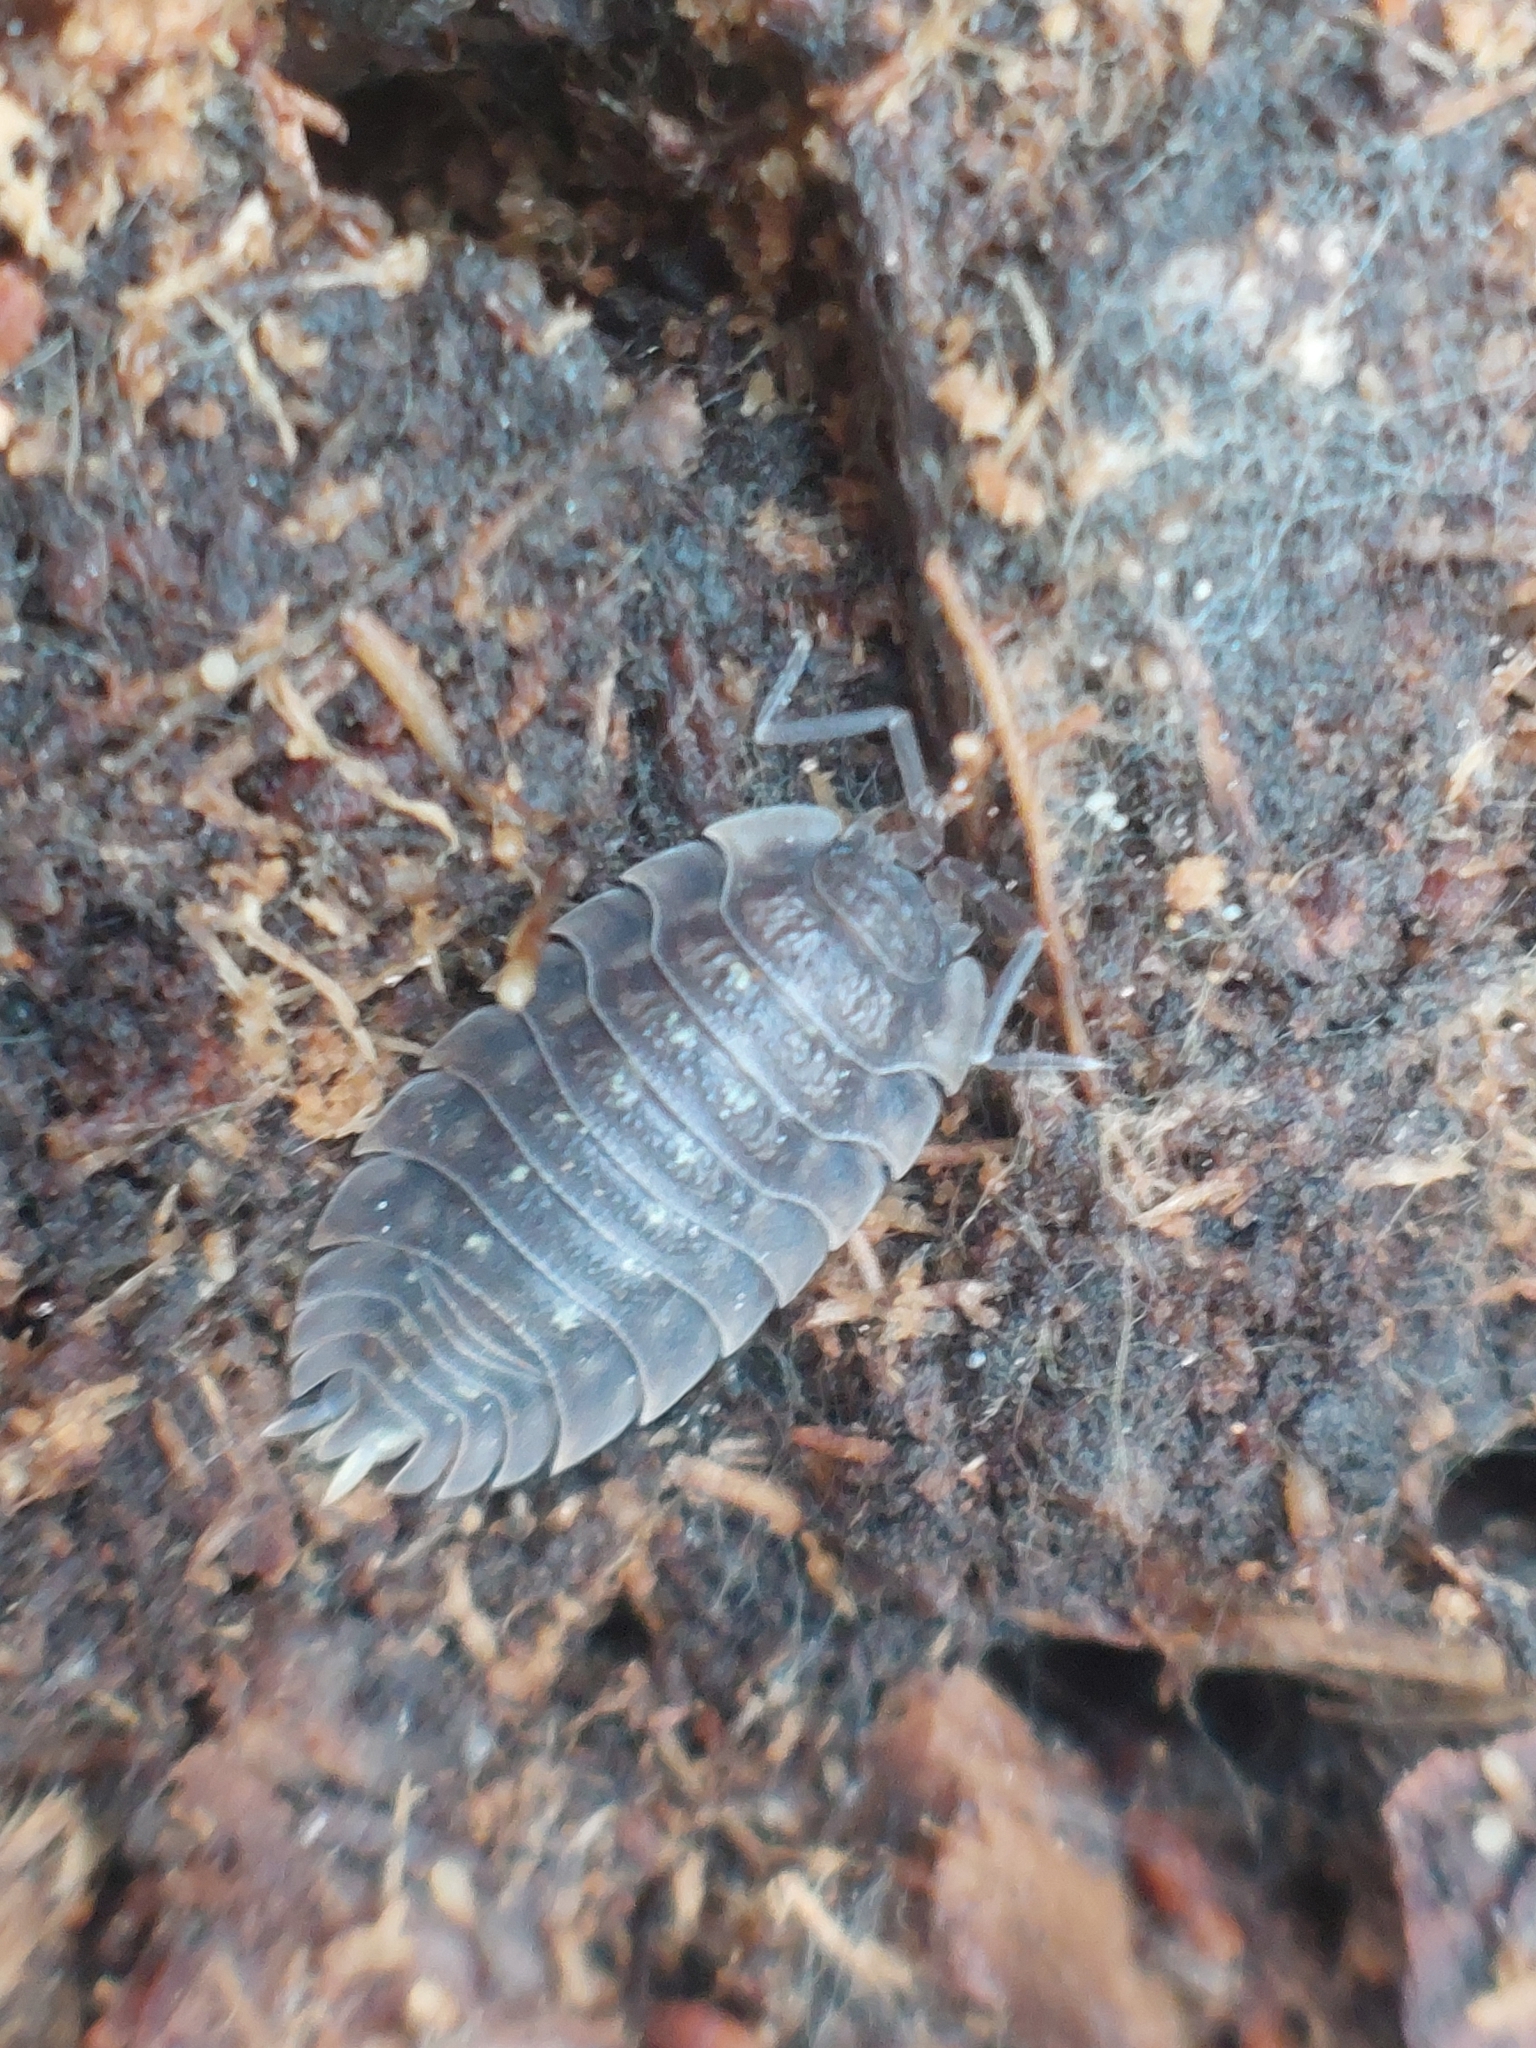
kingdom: Animalia
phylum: Arthropoda
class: Malacostraca
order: Isopoda
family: Oniscidae
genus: Oniscus
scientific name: Oniscus asellus
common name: Common shiny woodlouse
